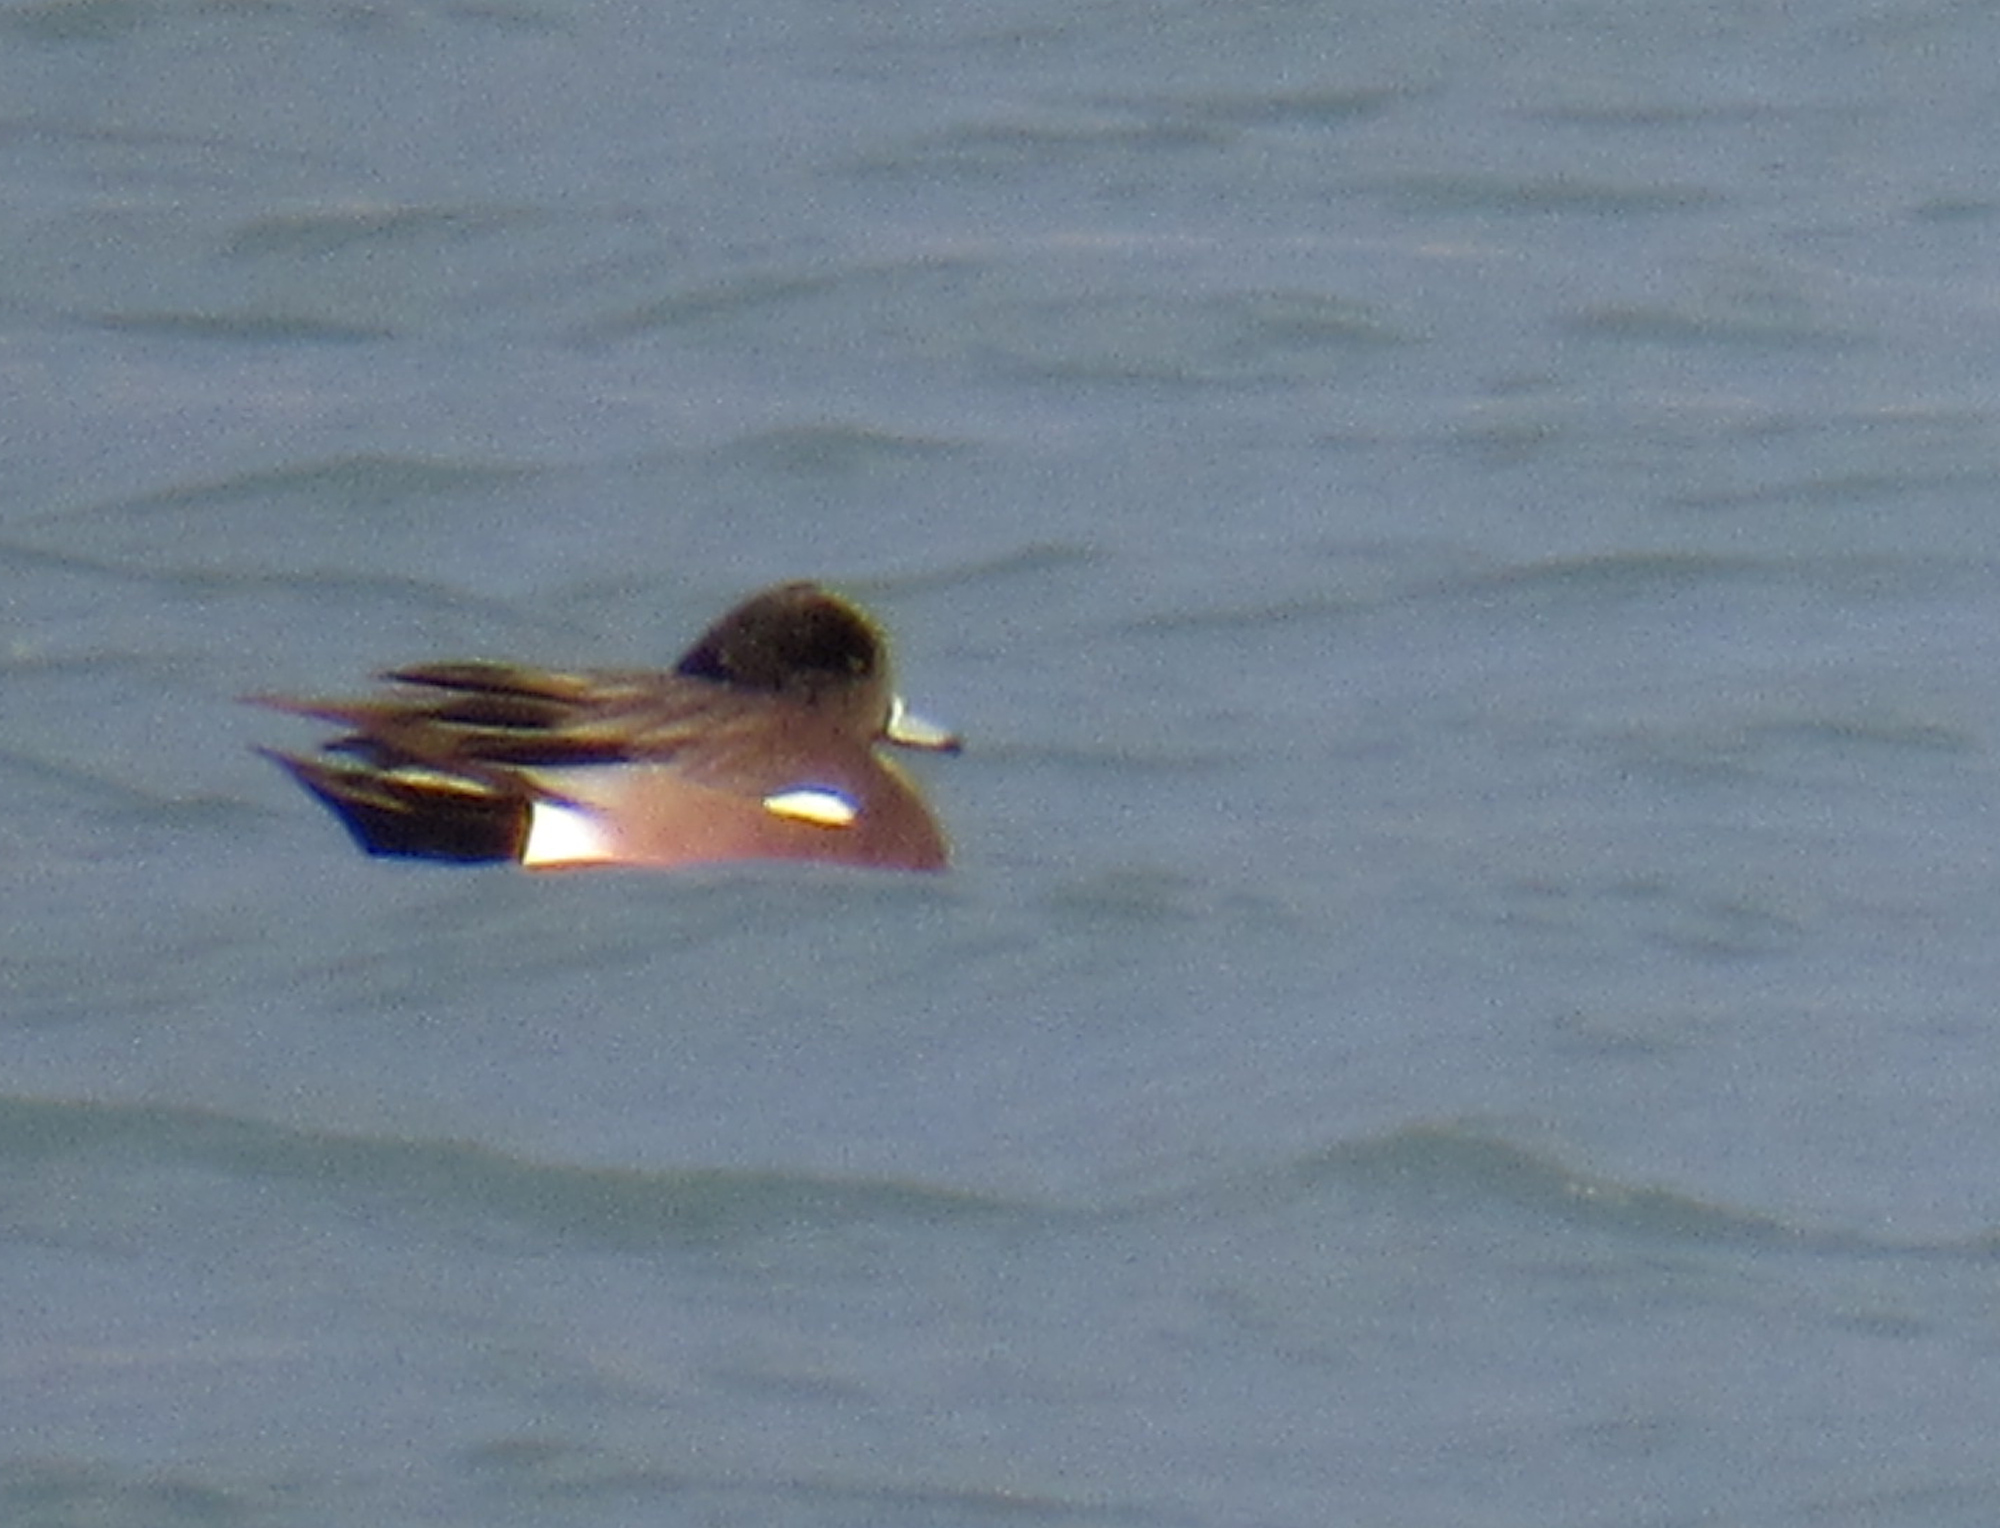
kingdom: Animalia
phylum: Chordata
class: Aves
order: Anseriformes
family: Anatidae
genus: Mareca
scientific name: Mareca americana
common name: American wigeon
